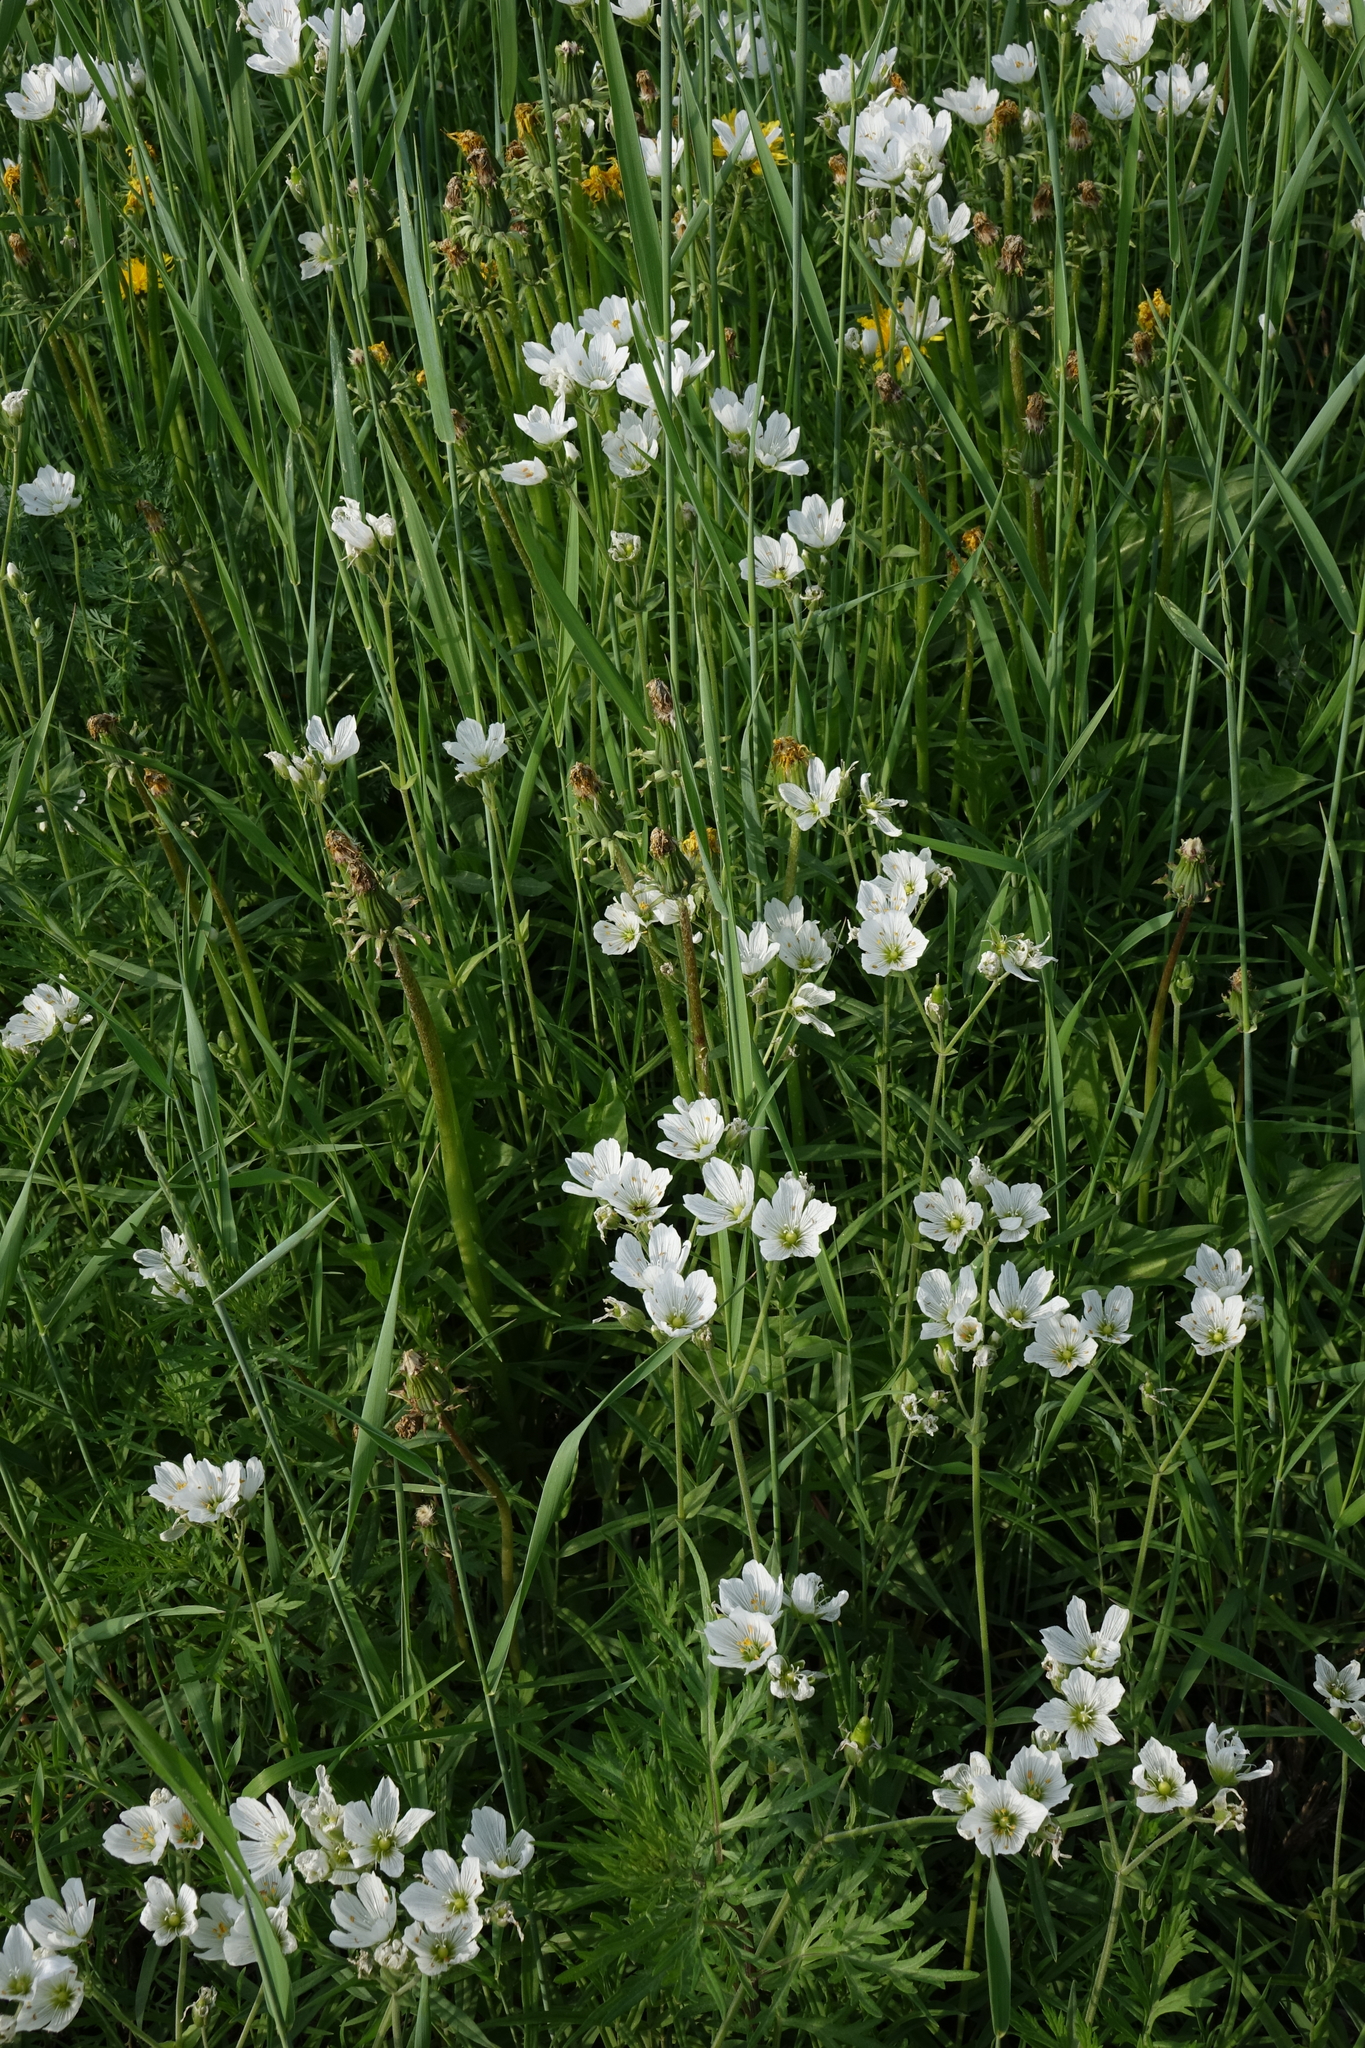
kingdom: Plantae
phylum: Tracheophyta
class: Magnoliopsida
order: Caryophyllales
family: Caryophyllaceae
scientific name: Caryophyllaceae
